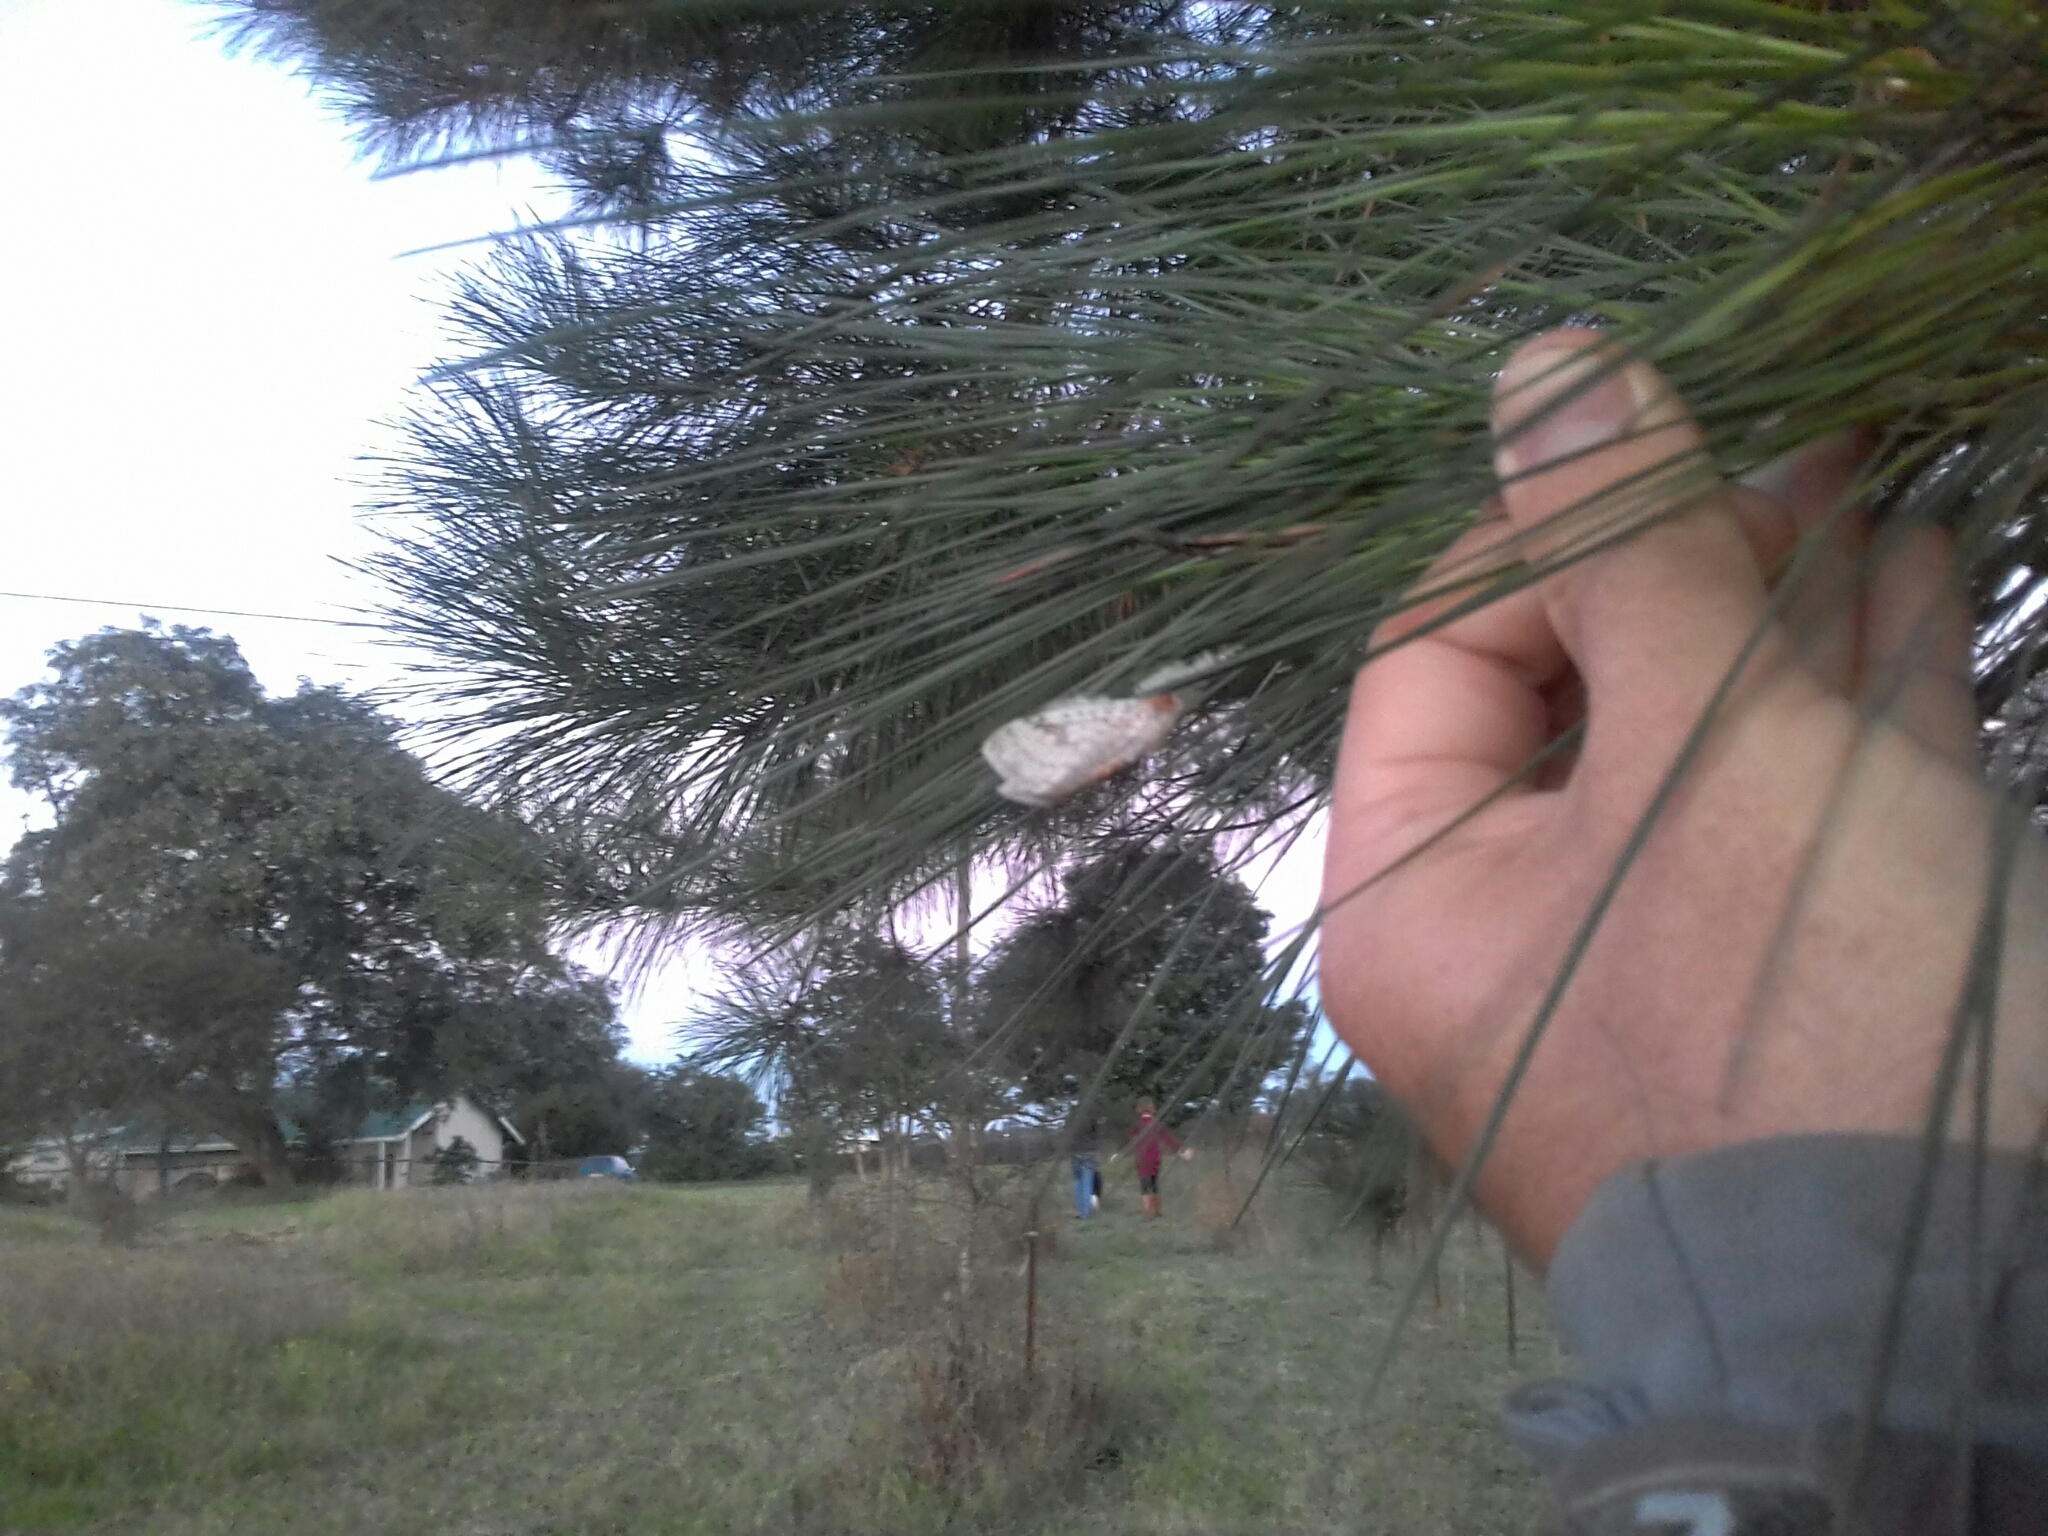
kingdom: Animalia
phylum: Arthropoda
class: Insecta
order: Lepidoptera
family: Erebidae
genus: Dasychira
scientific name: Dasychira georgiana
